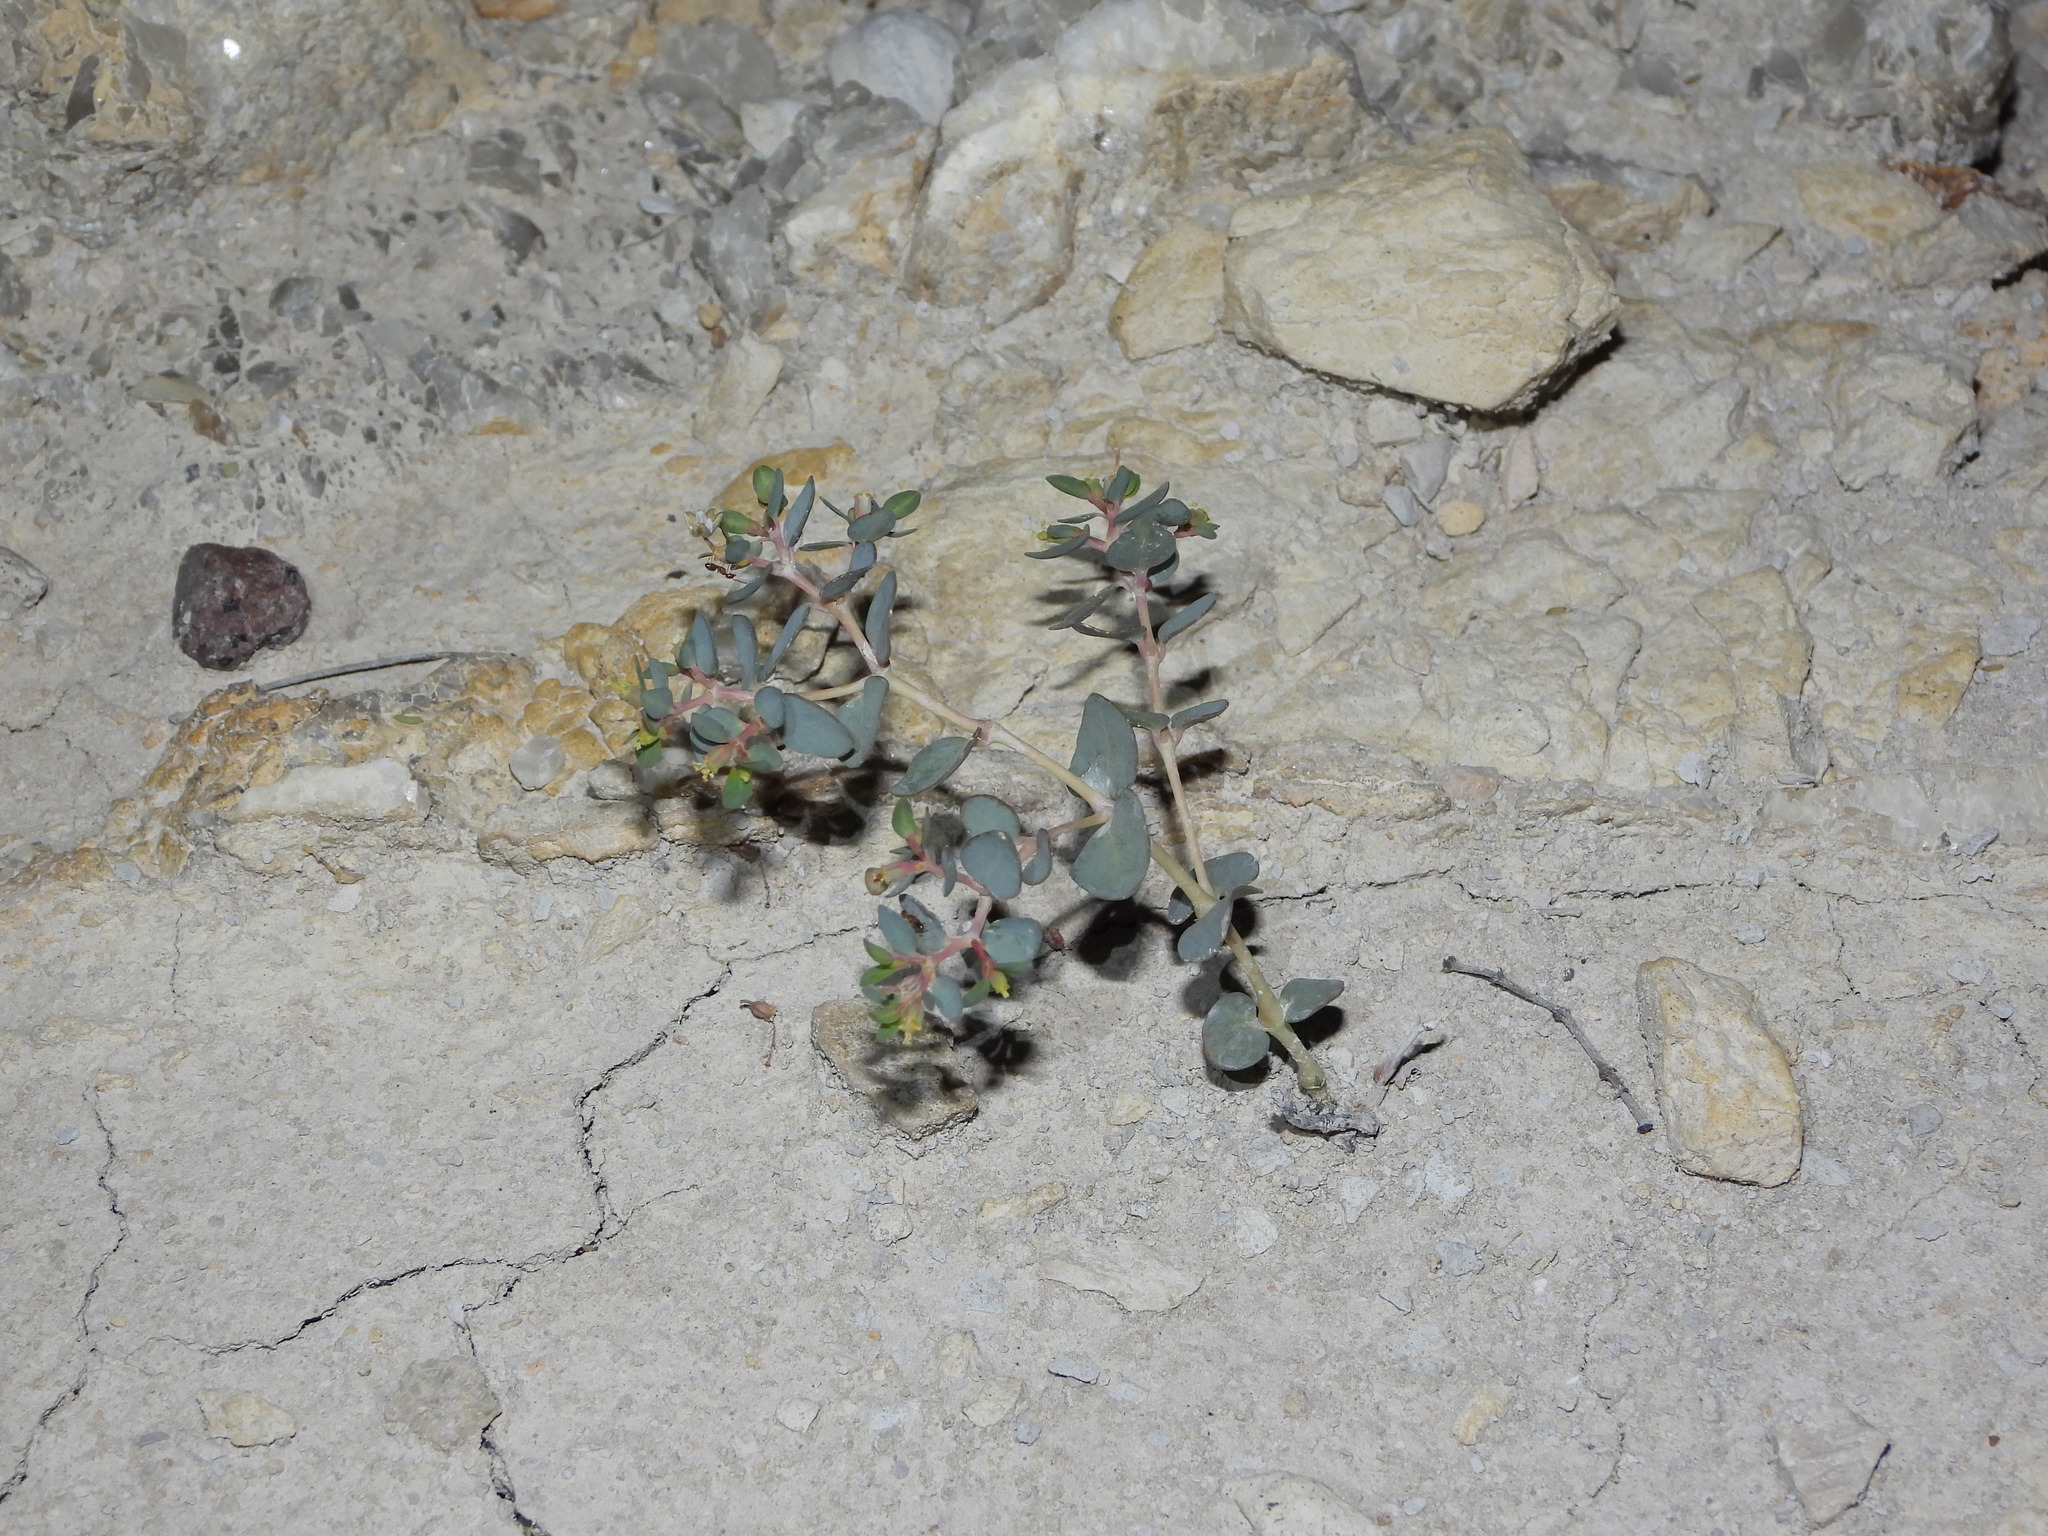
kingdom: Plantae
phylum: Tracheophyta
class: Magnoliopsida
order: Malpighiales
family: Euphorbiaceae
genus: Euphorbia
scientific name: Euphorbia perennans
